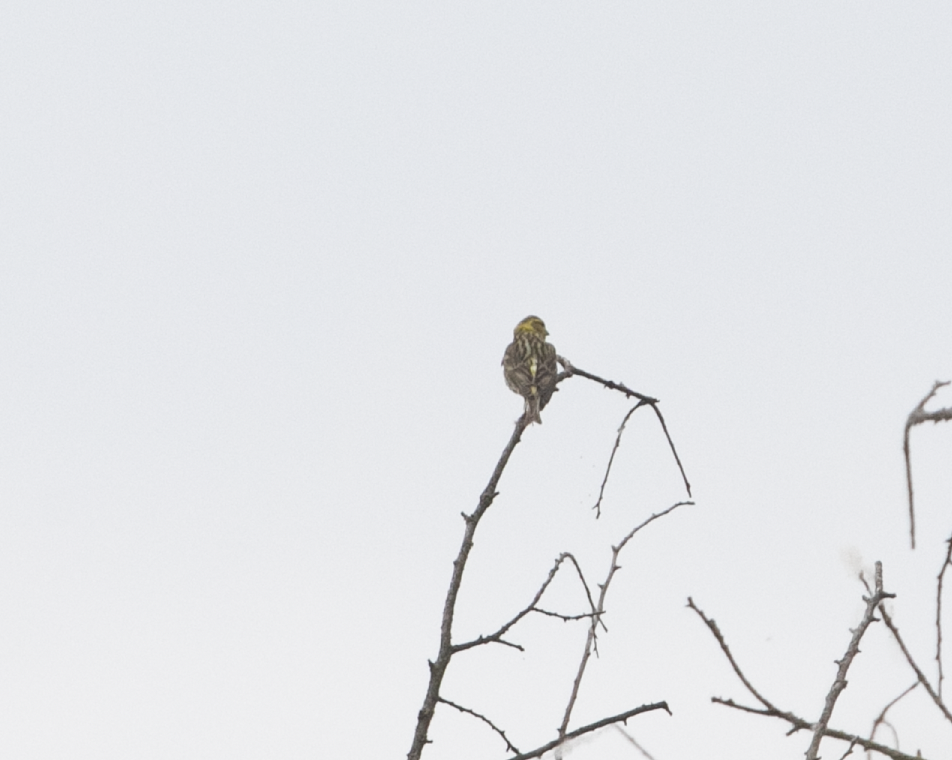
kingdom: Animalia
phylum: Chordata
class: Aves
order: Passeriformes
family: Fringillidae
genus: Serinus
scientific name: Serinus serinus
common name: European serin
